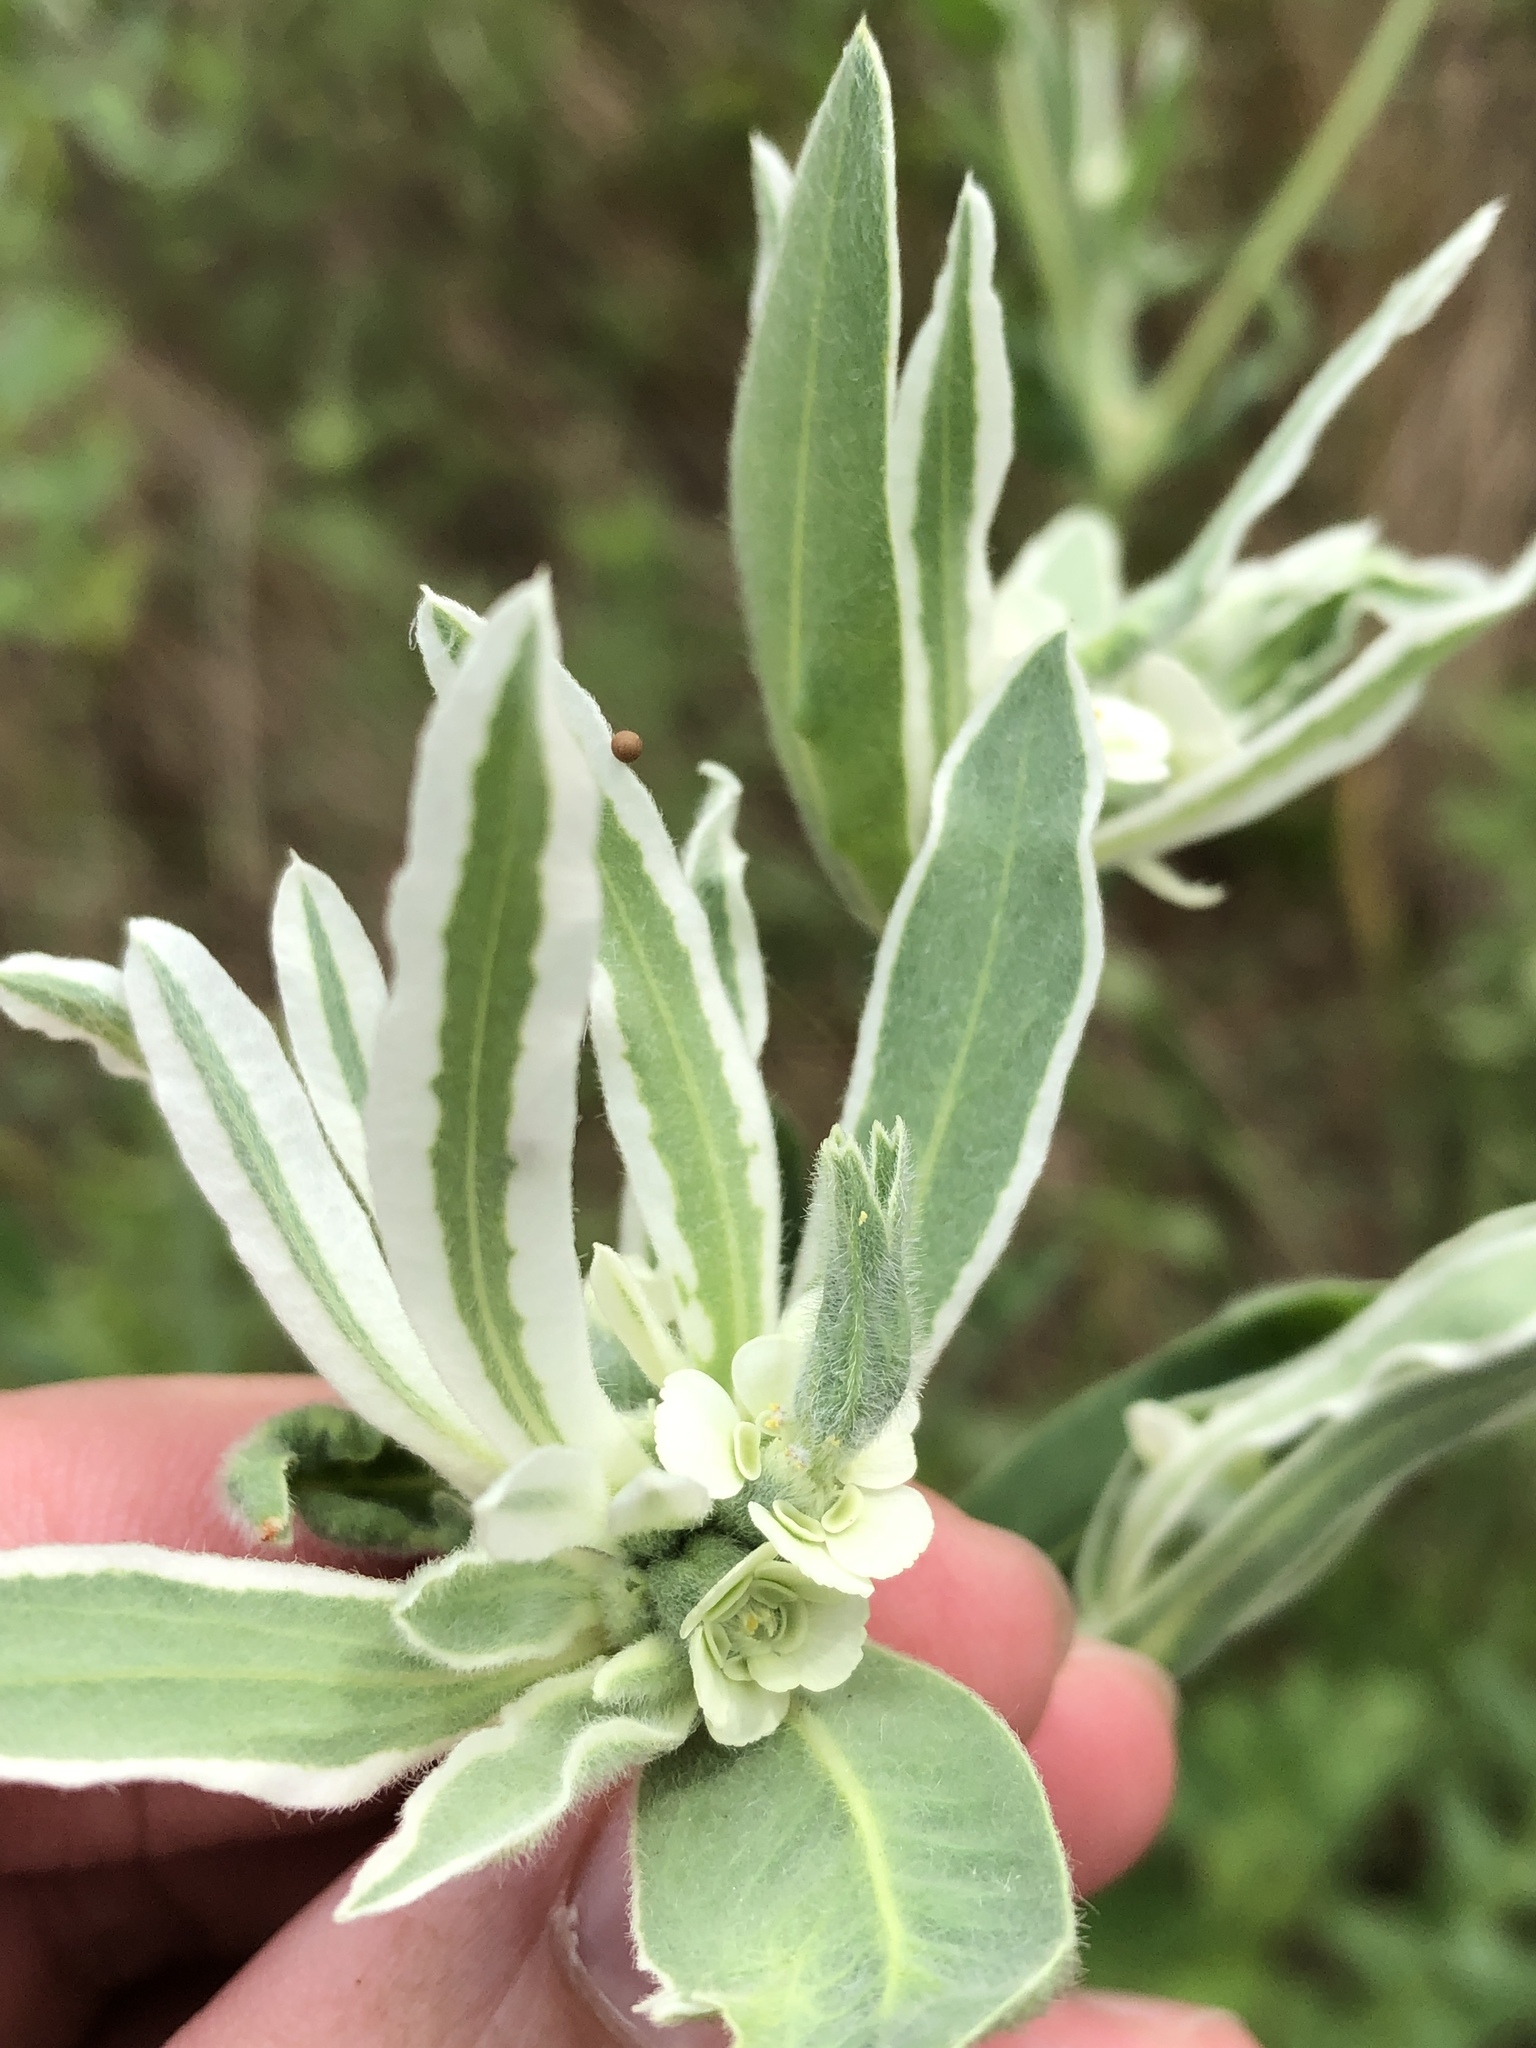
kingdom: Plantae
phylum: Tracheophyta
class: Magnoliopsida
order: Malpighiales
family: Euphorbiaceae
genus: Euphorbia
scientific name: Euphorbia bicolor
